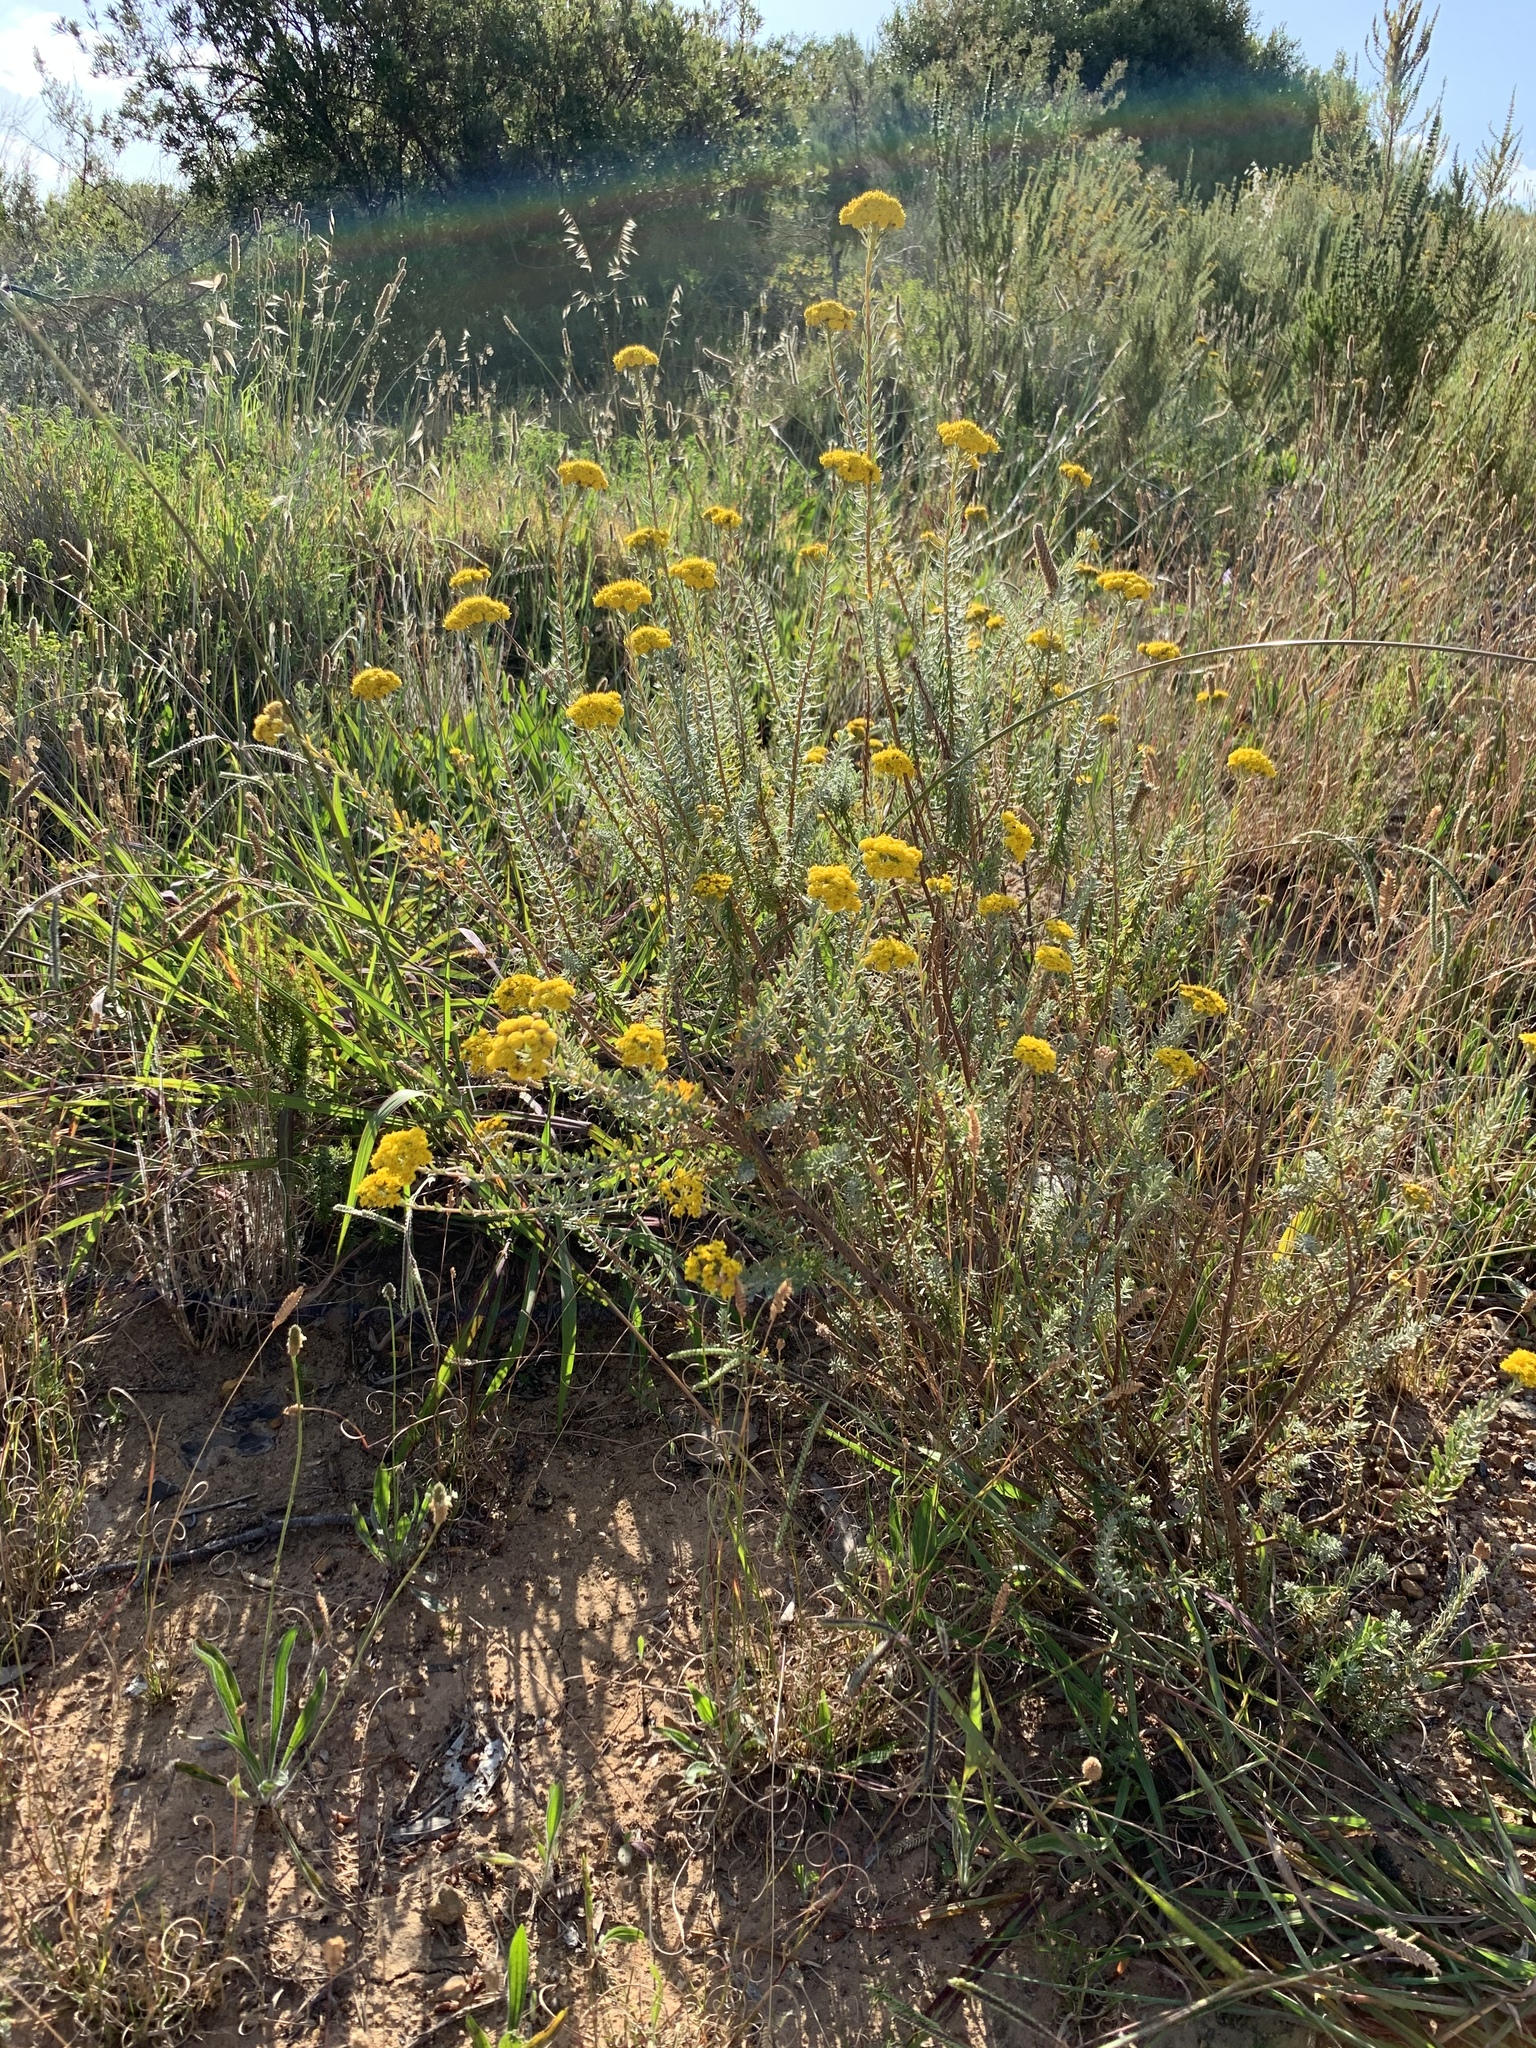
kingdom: Plantae
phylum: Tracheophyta
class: Magnoliopsida
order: Asterales
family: Asteraceae
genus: Athanasia
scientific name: Athanasia trifurcata
